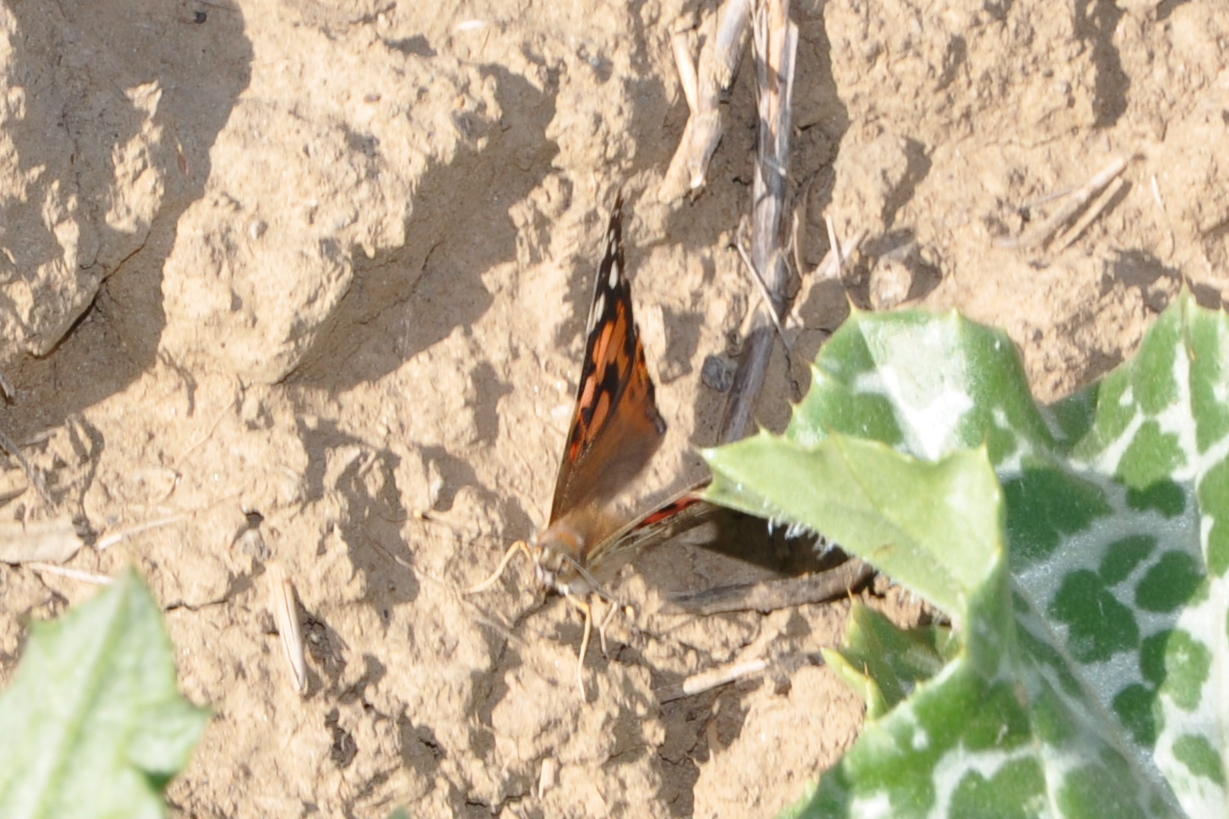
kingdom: Animalia
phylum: Arthropoda
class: Insecta
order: Lepidoptera
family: Nymphalidae
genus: Vanessa
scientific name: Vanessa cardui
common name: Painted lady
